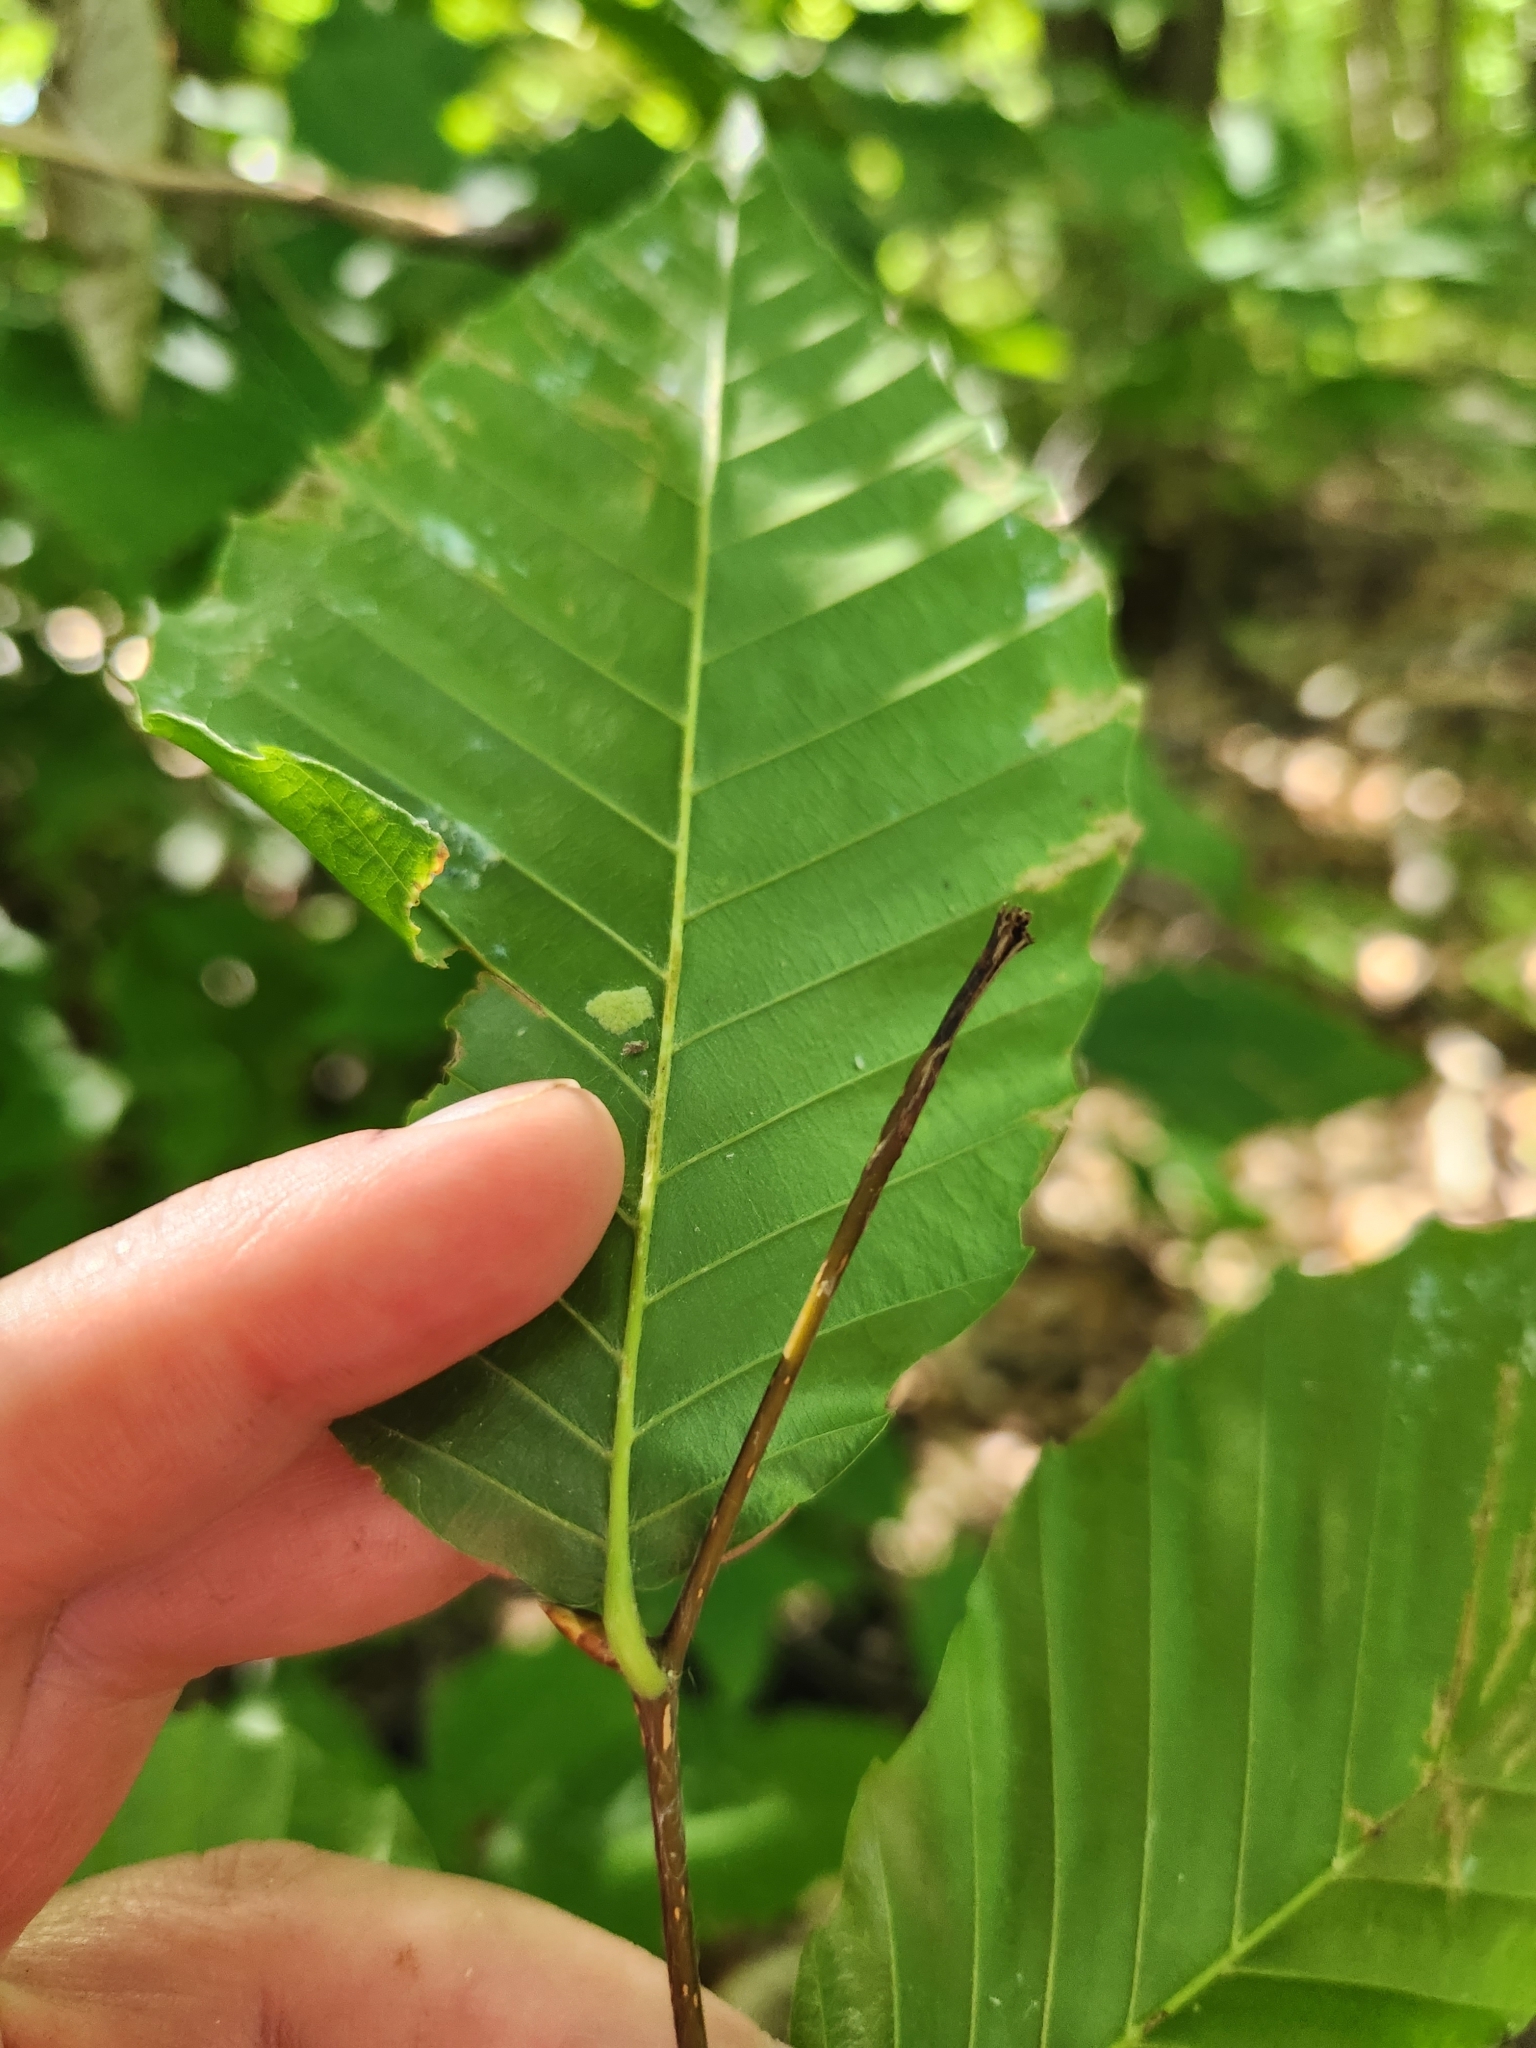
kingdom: Plantae
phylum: Tracheophyta
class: Magnoliopsida
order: Fagales
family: Fagaceae
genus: Fagus
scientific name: Fagus grandifolia
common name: American beech
